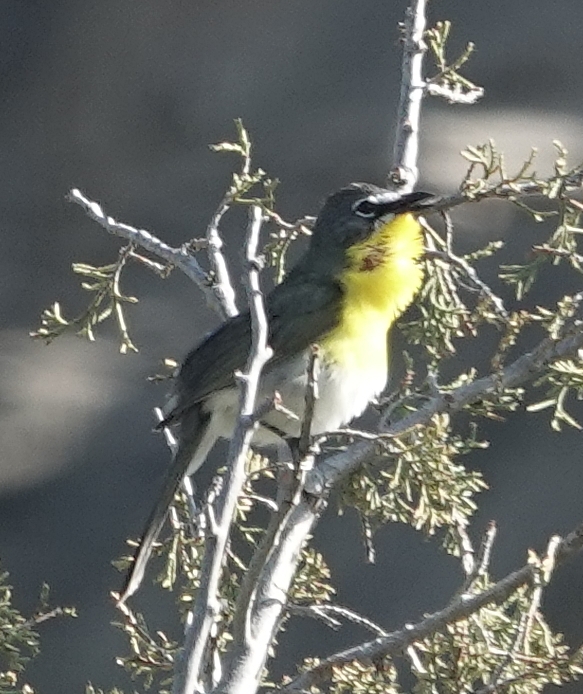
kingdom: Animalia
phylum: Chordata
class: Aves
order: Passeriformes
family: Parulidae
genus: Icteria
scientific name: Icteria virens
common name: Yellow-breasted chat
